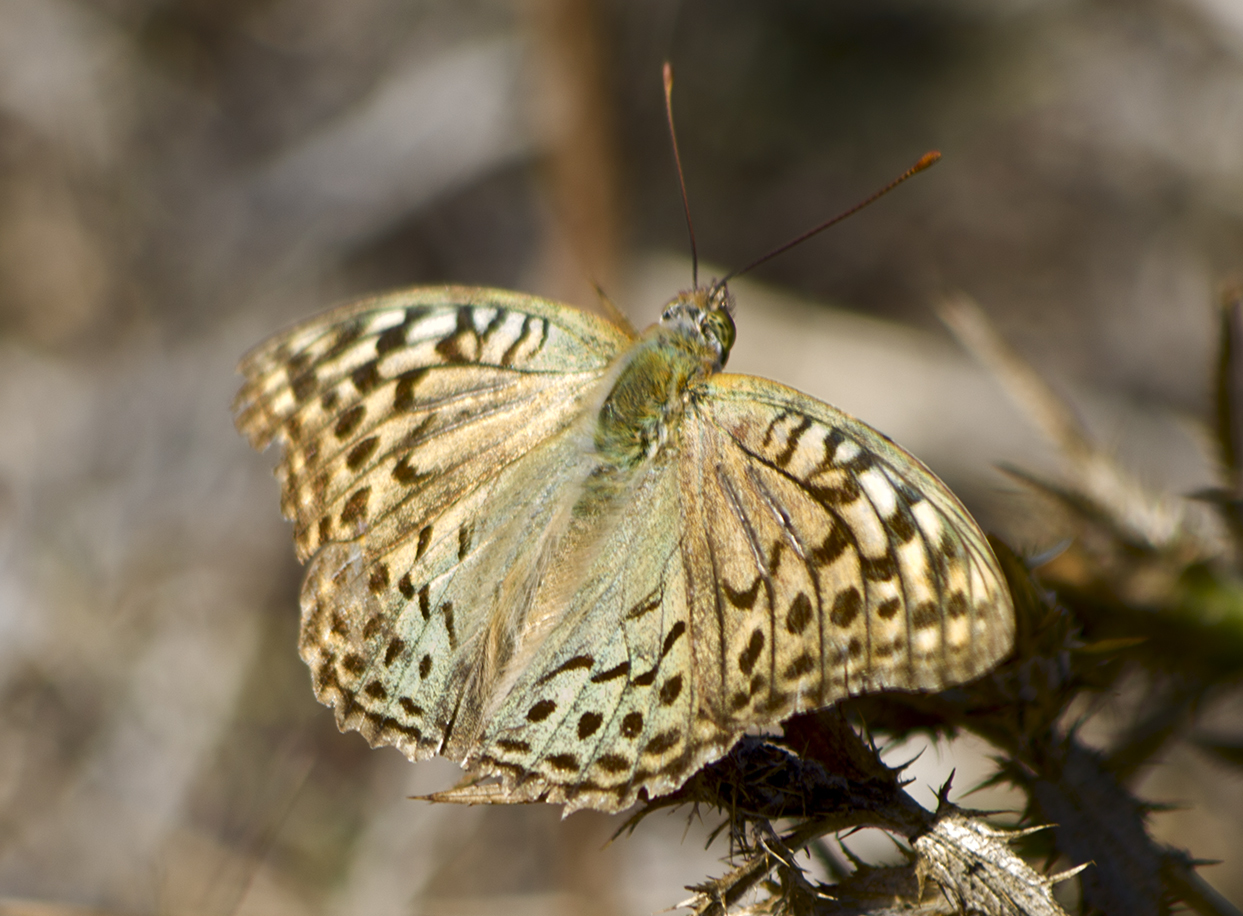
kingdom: Animalia
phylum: Arthropoda
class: Insecta
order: Lepidoptera
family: Nymphalidae
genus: Damora
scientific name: Damora pandora
